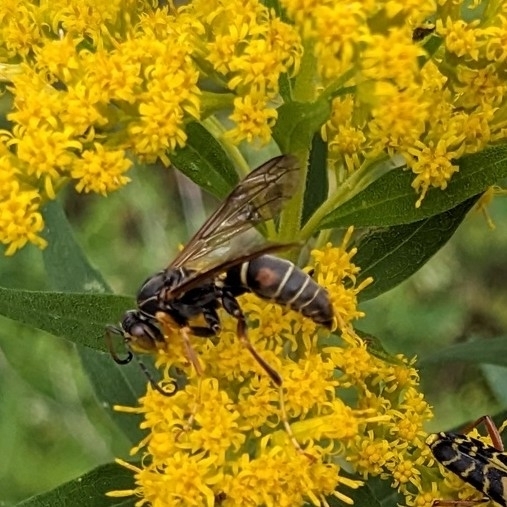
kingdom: Animalia
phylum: Arthropoda
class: Insecta
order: Hymenoptera
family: Eumenidae
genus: Polistes
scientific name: Polistes fuscatus
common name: Dark paper wasp
